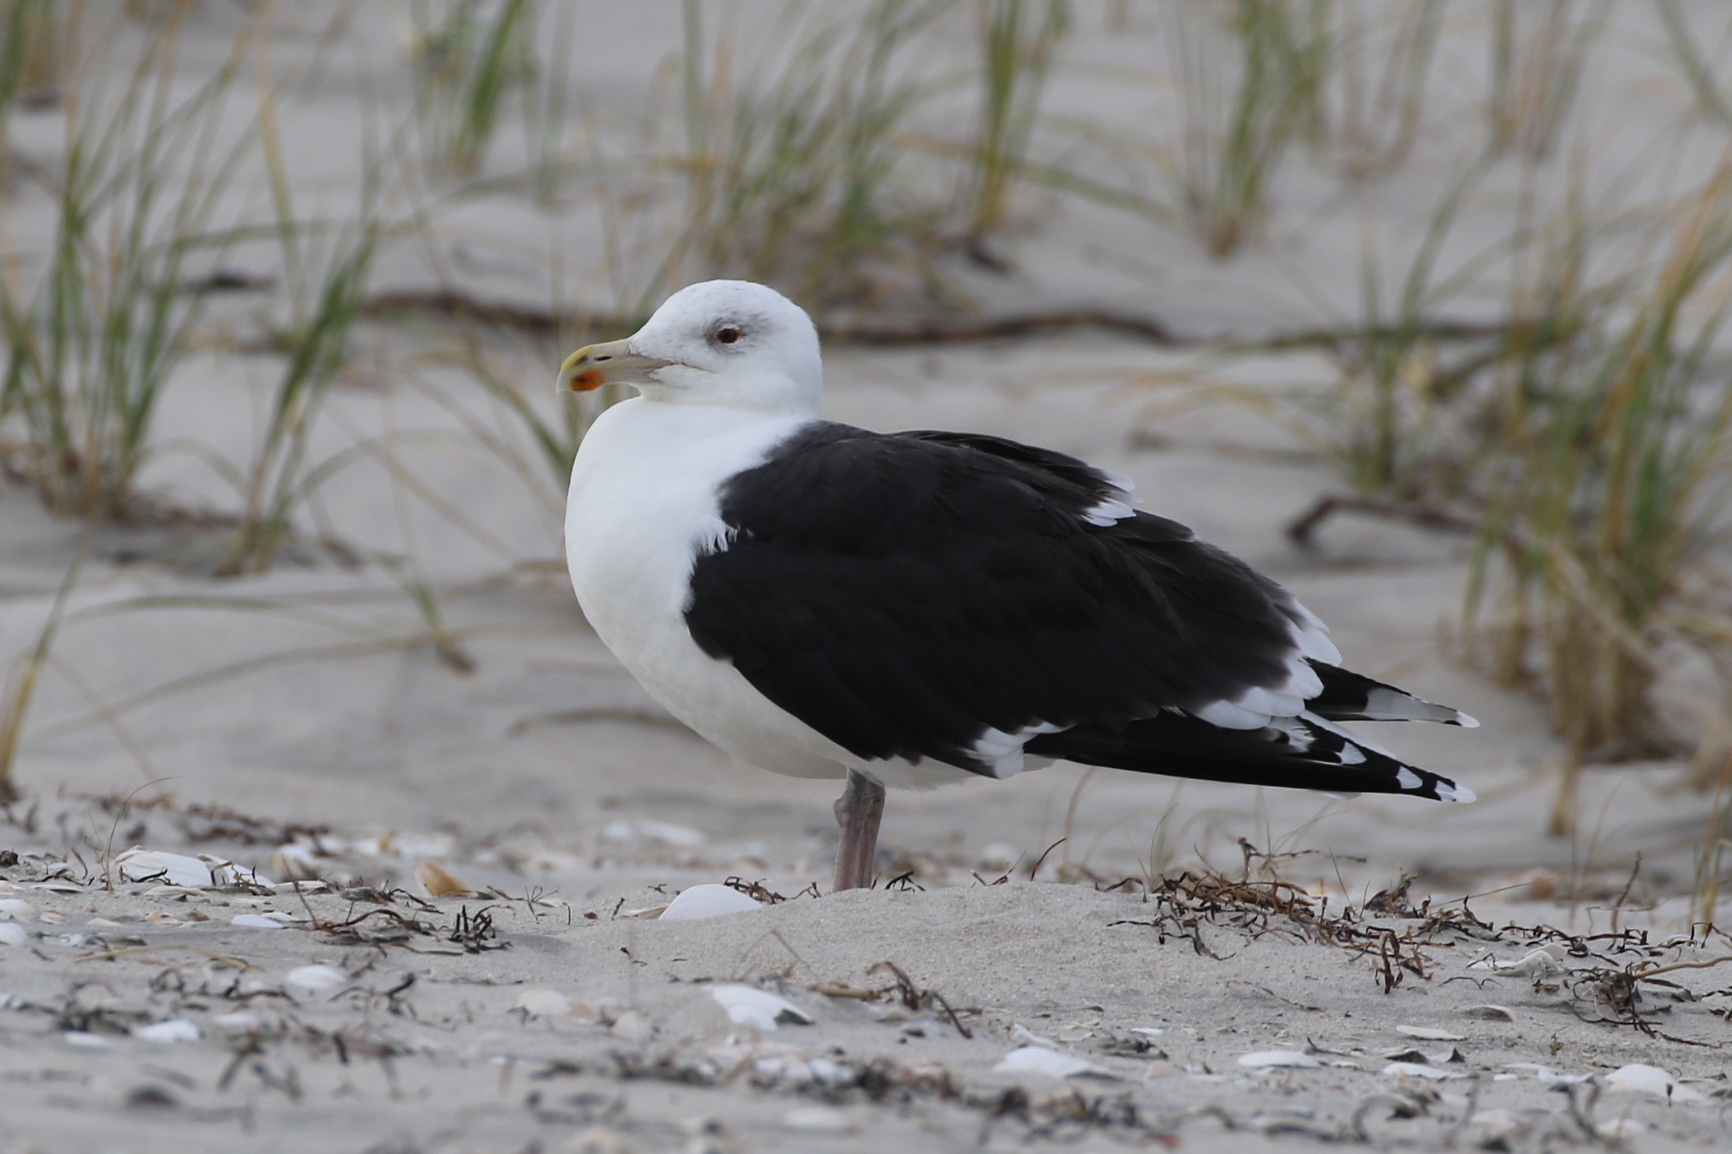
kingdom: Animalia
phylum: Chordata
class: Aves
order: Charadriiformes
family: Laridae
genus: Larus
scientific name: Larus marinus
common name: Great black-backed gull
